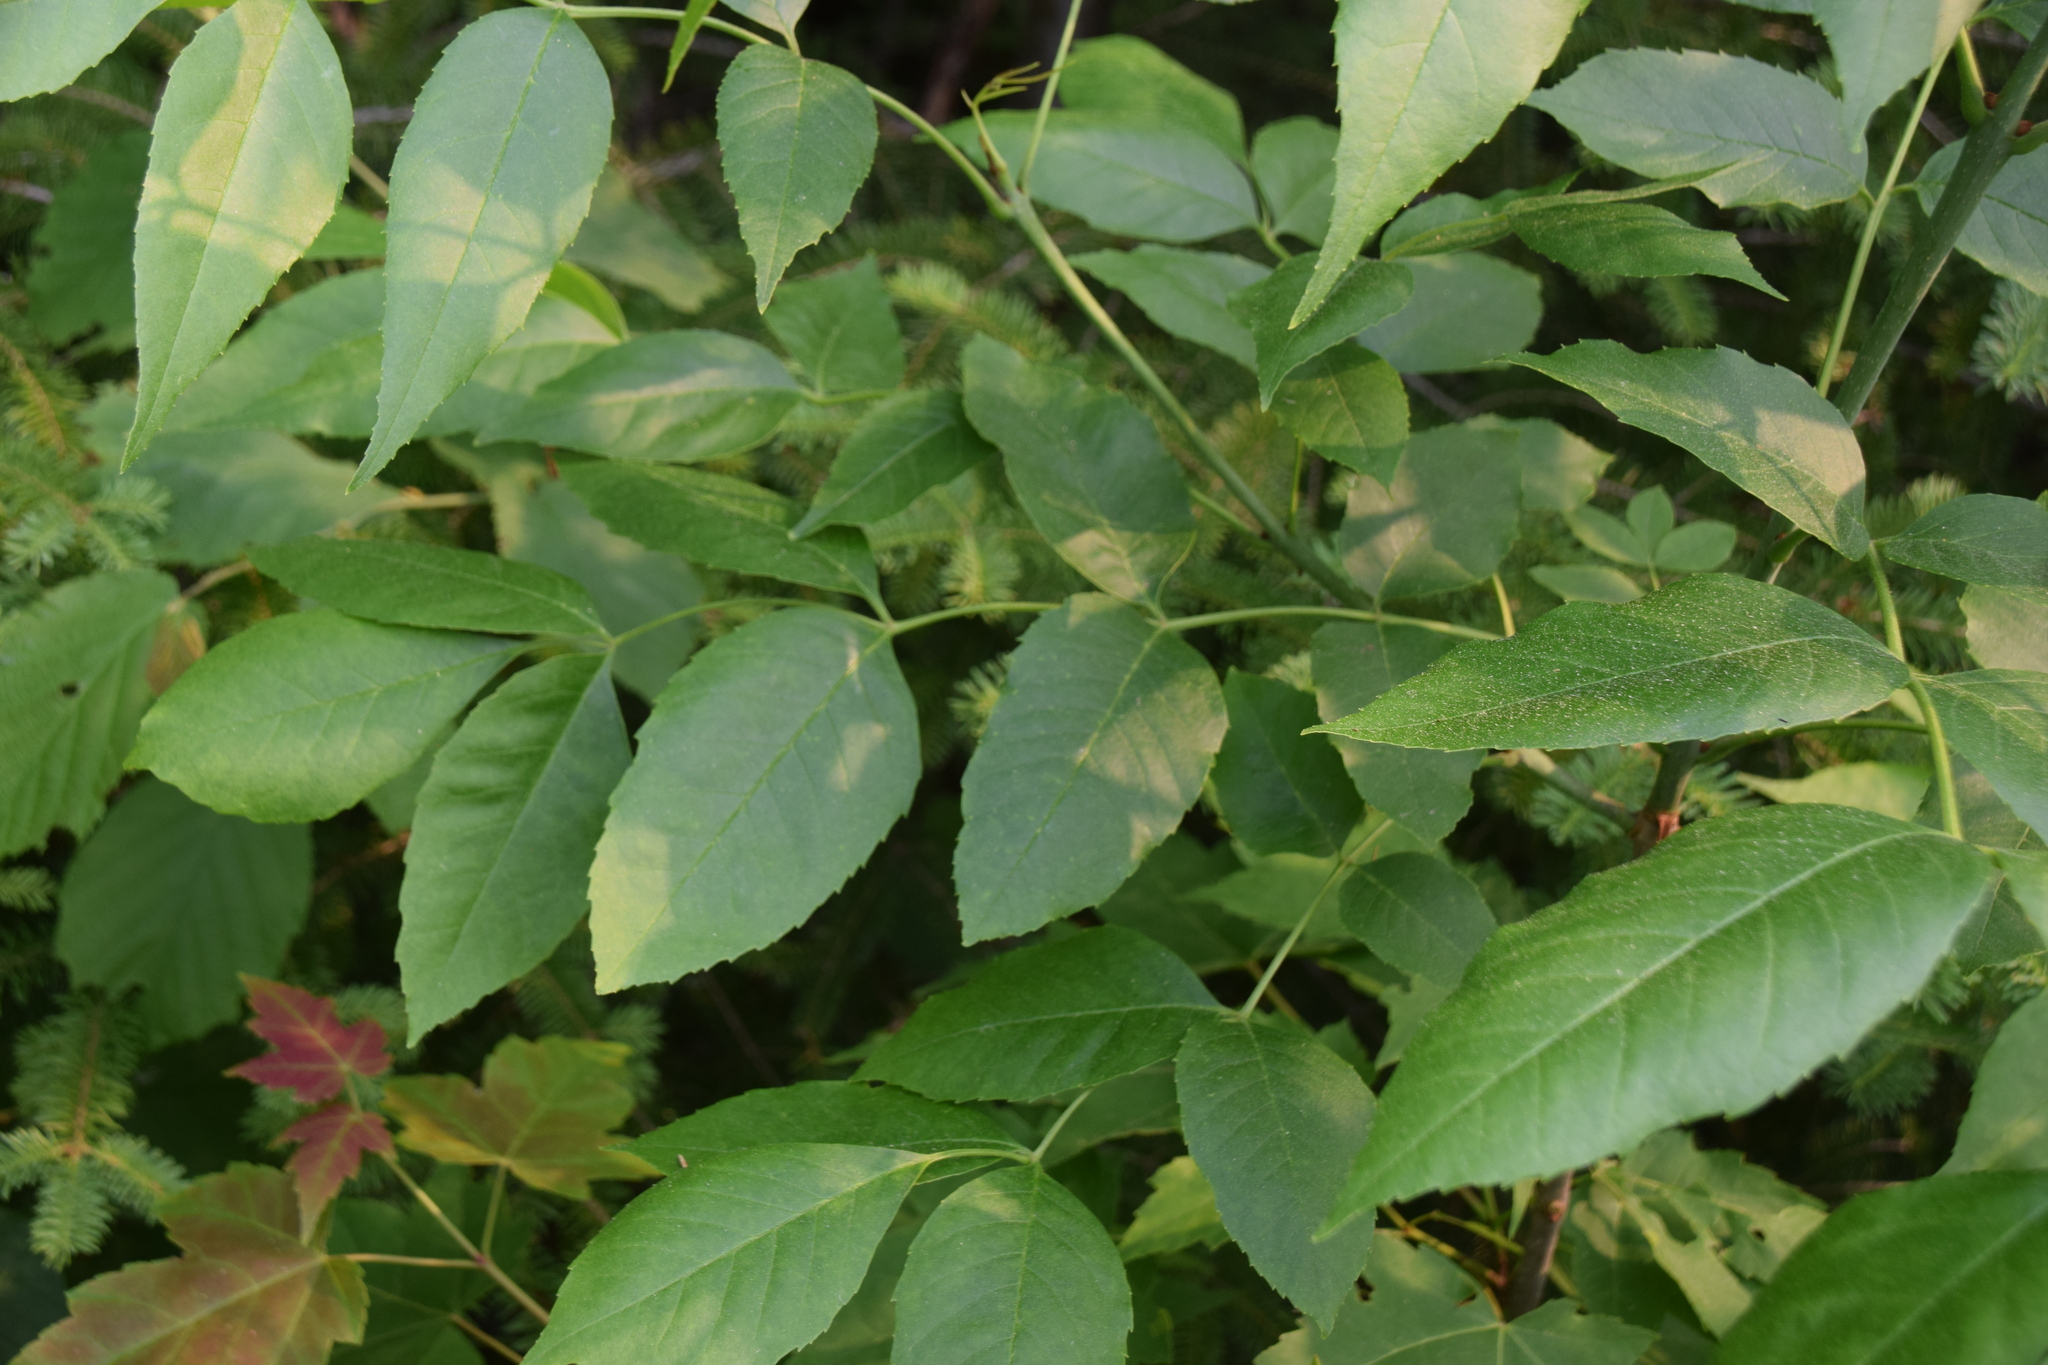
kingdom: Plantae
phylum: Tracheophyta
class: Magnoliopsida
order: Lamiales
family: Oleaceae
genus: Fraxinus
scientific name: Fraxinus pennsylvanica
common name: Green ash
